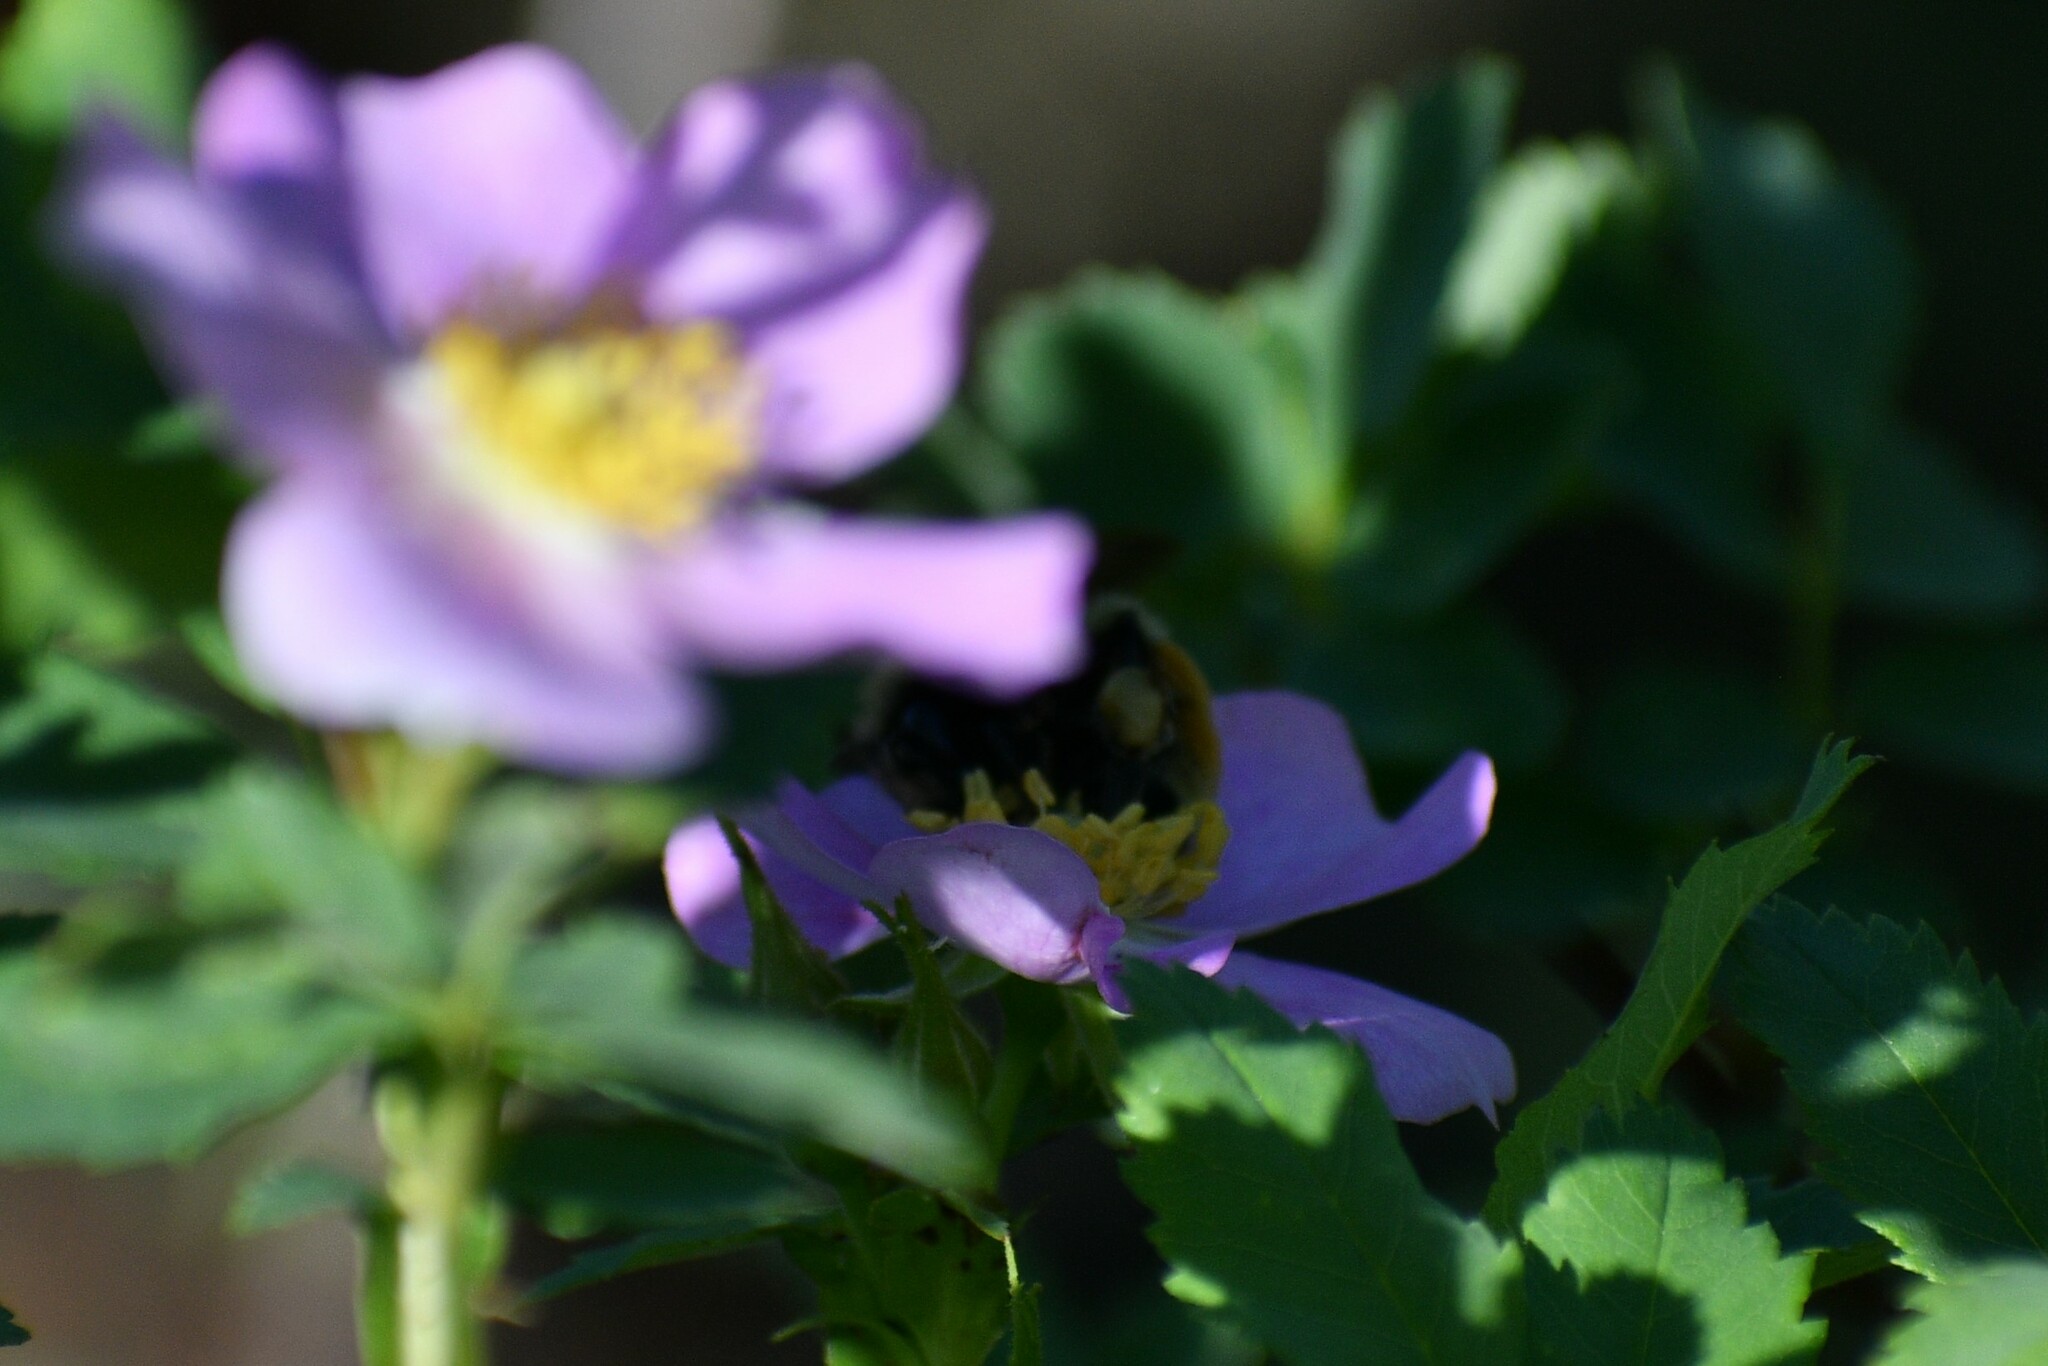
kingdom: Animalia
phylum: Arthropoda
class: Insecta
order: Hymenoptera
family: Apidae
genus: Bombus
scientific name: Bombus vancouverensis
